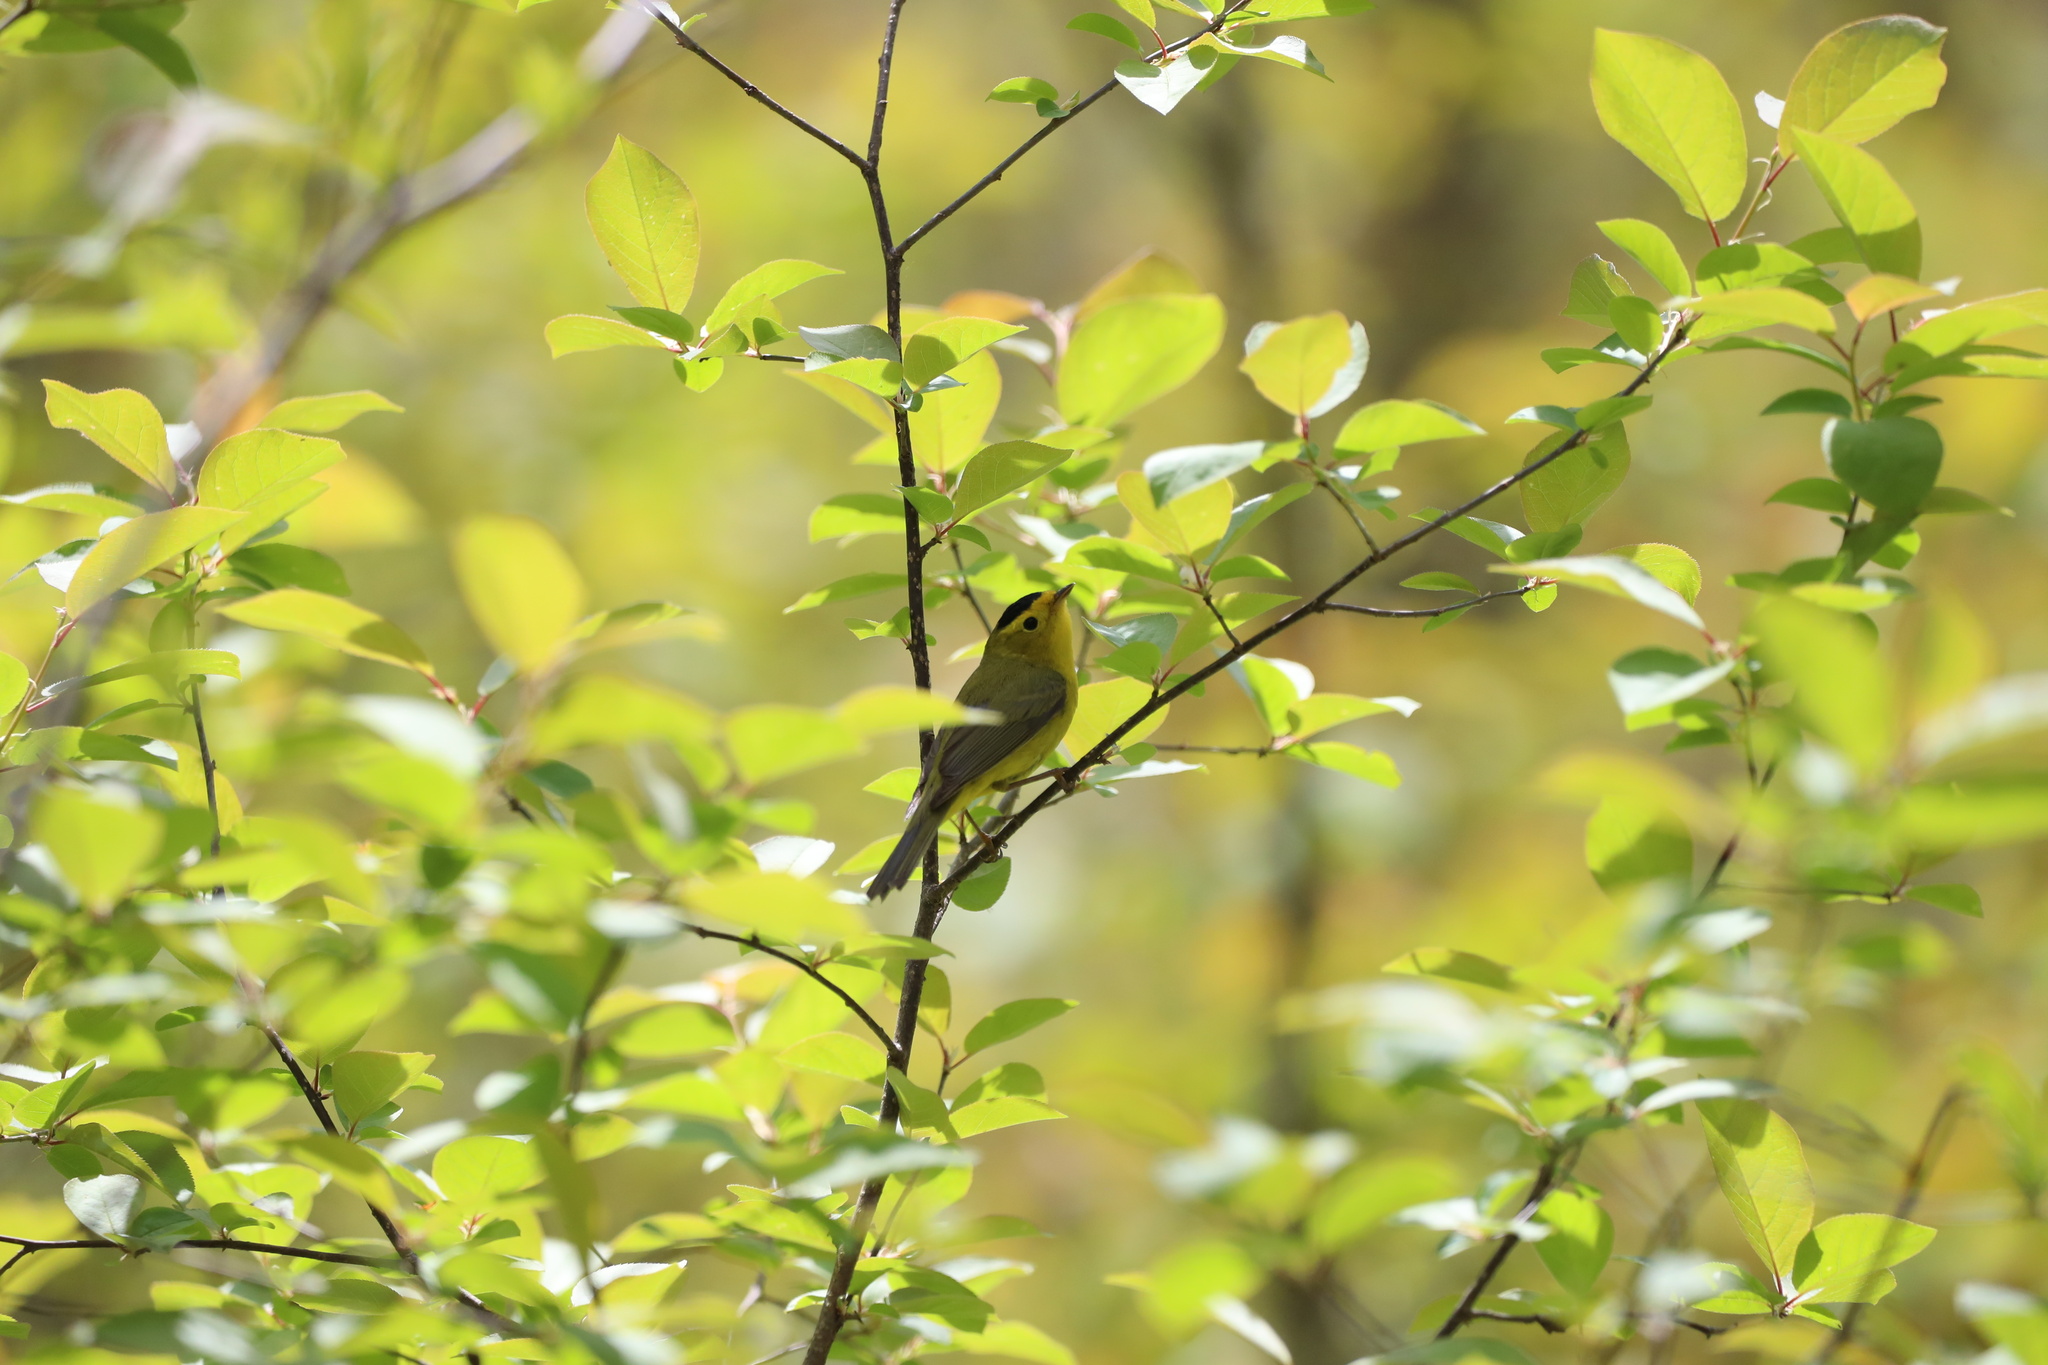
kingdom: Animalia
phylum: Chordata
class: Aves
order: Passeriformes
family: Parulidae
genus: Cardellina
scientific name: Cardellina pusilla
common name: Wilson's warbler
